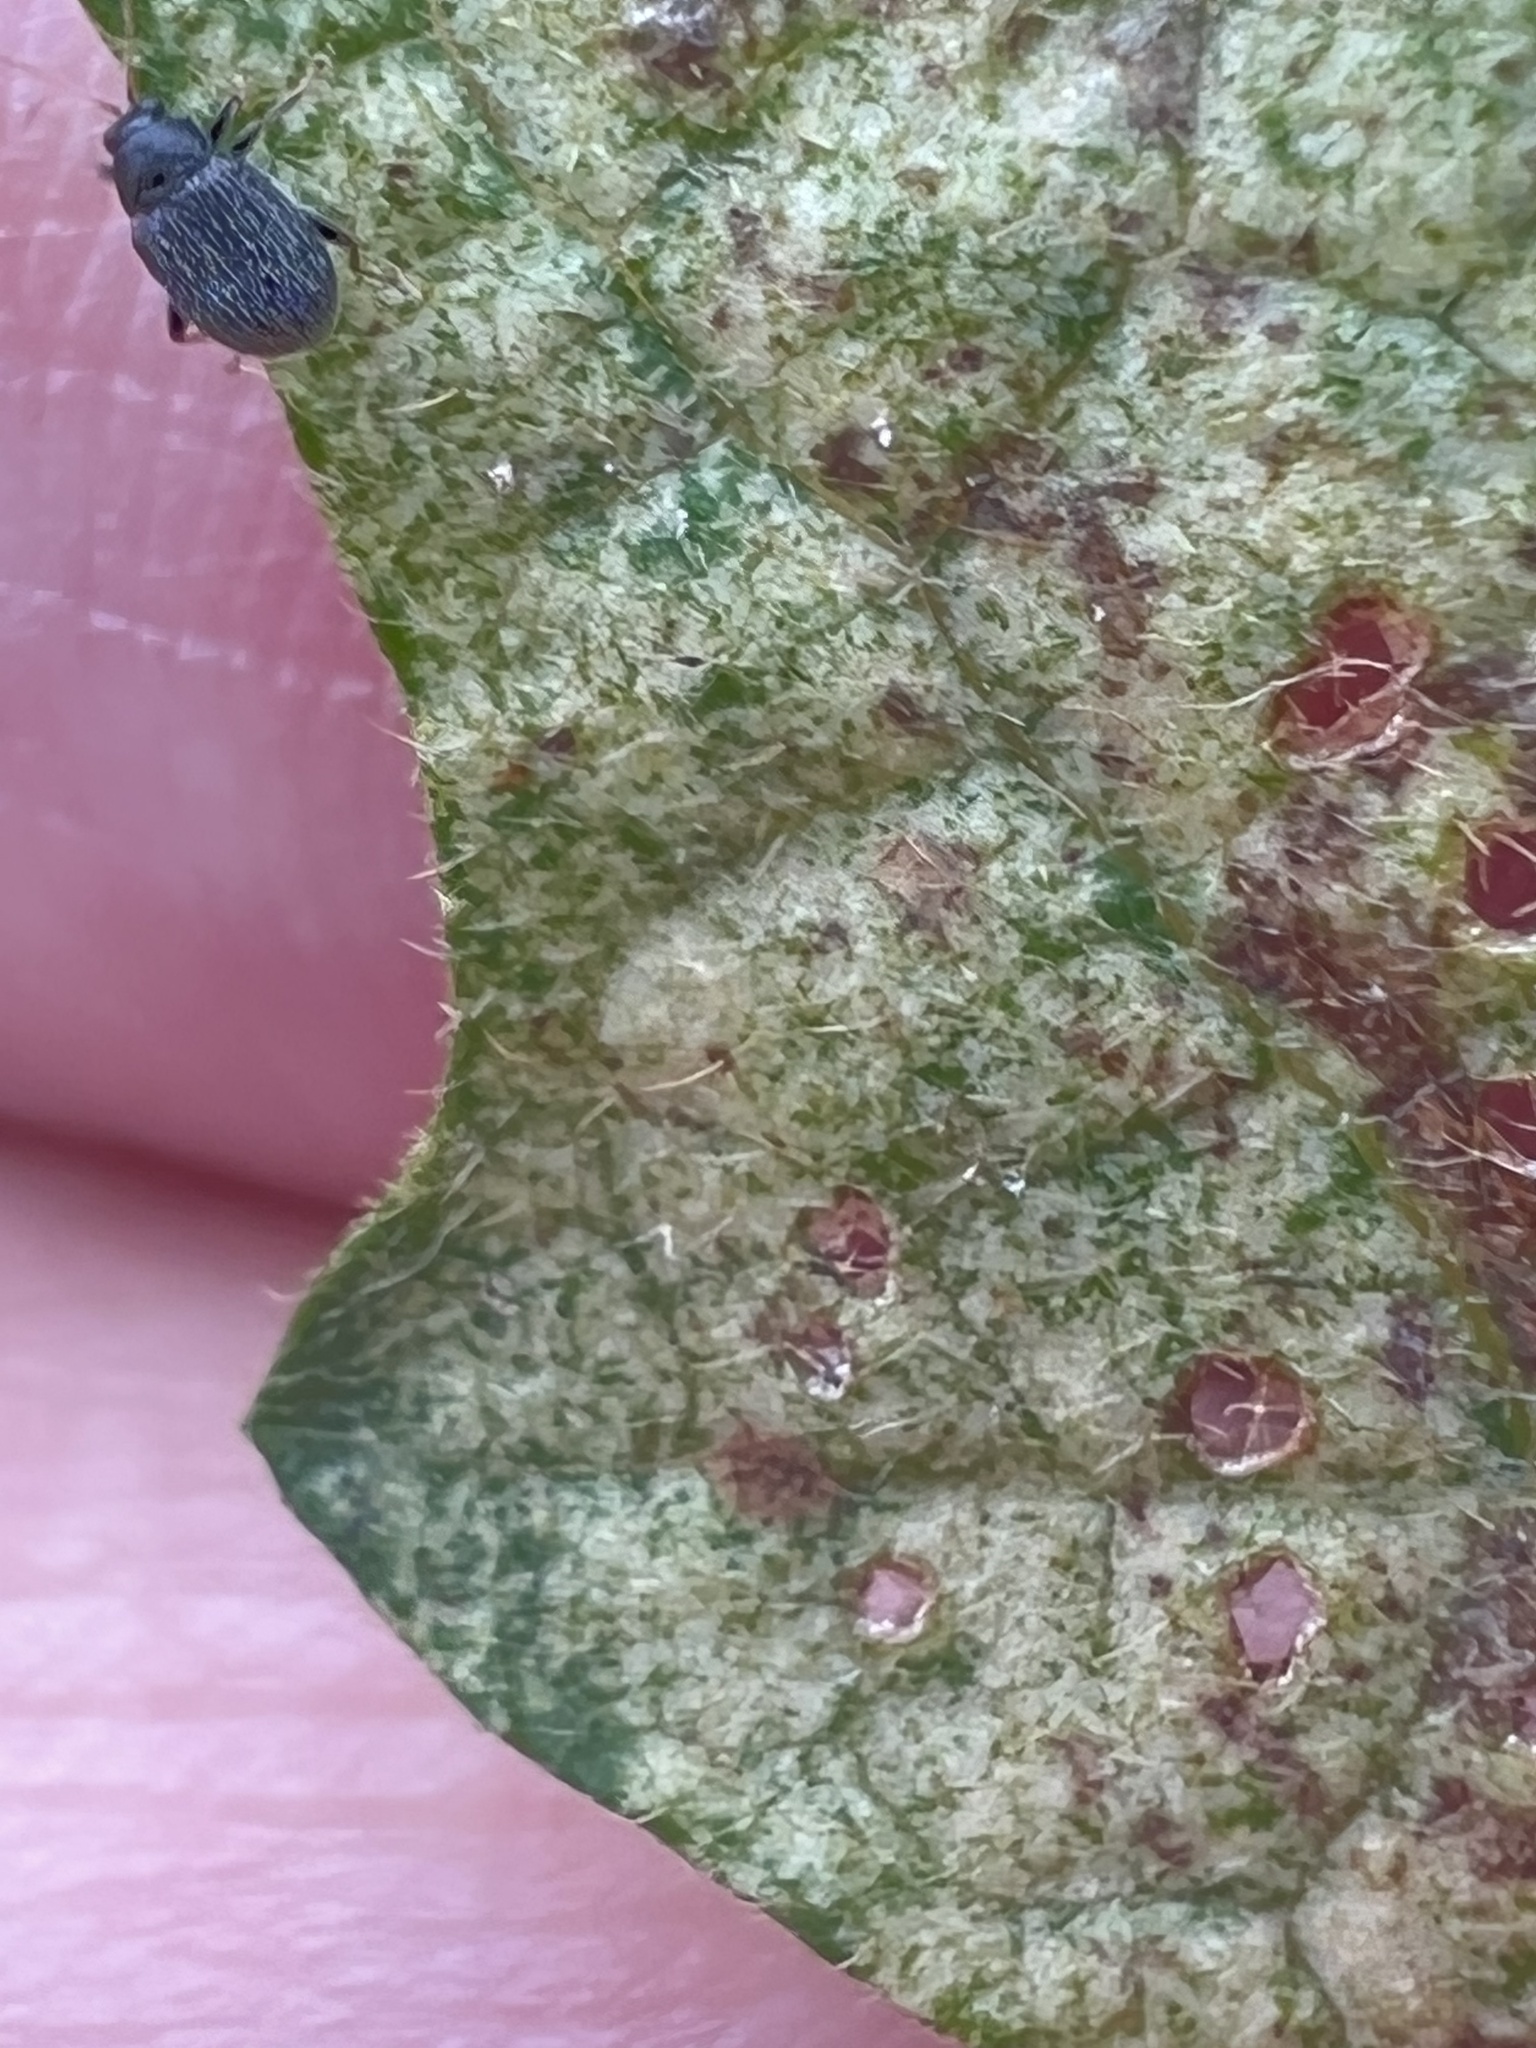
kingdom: Animalia
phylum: Arthropoda
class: Insecta
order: Coleoptera
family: Chrysomelidae
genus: Epitrix
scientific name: Epitrix fuscula
